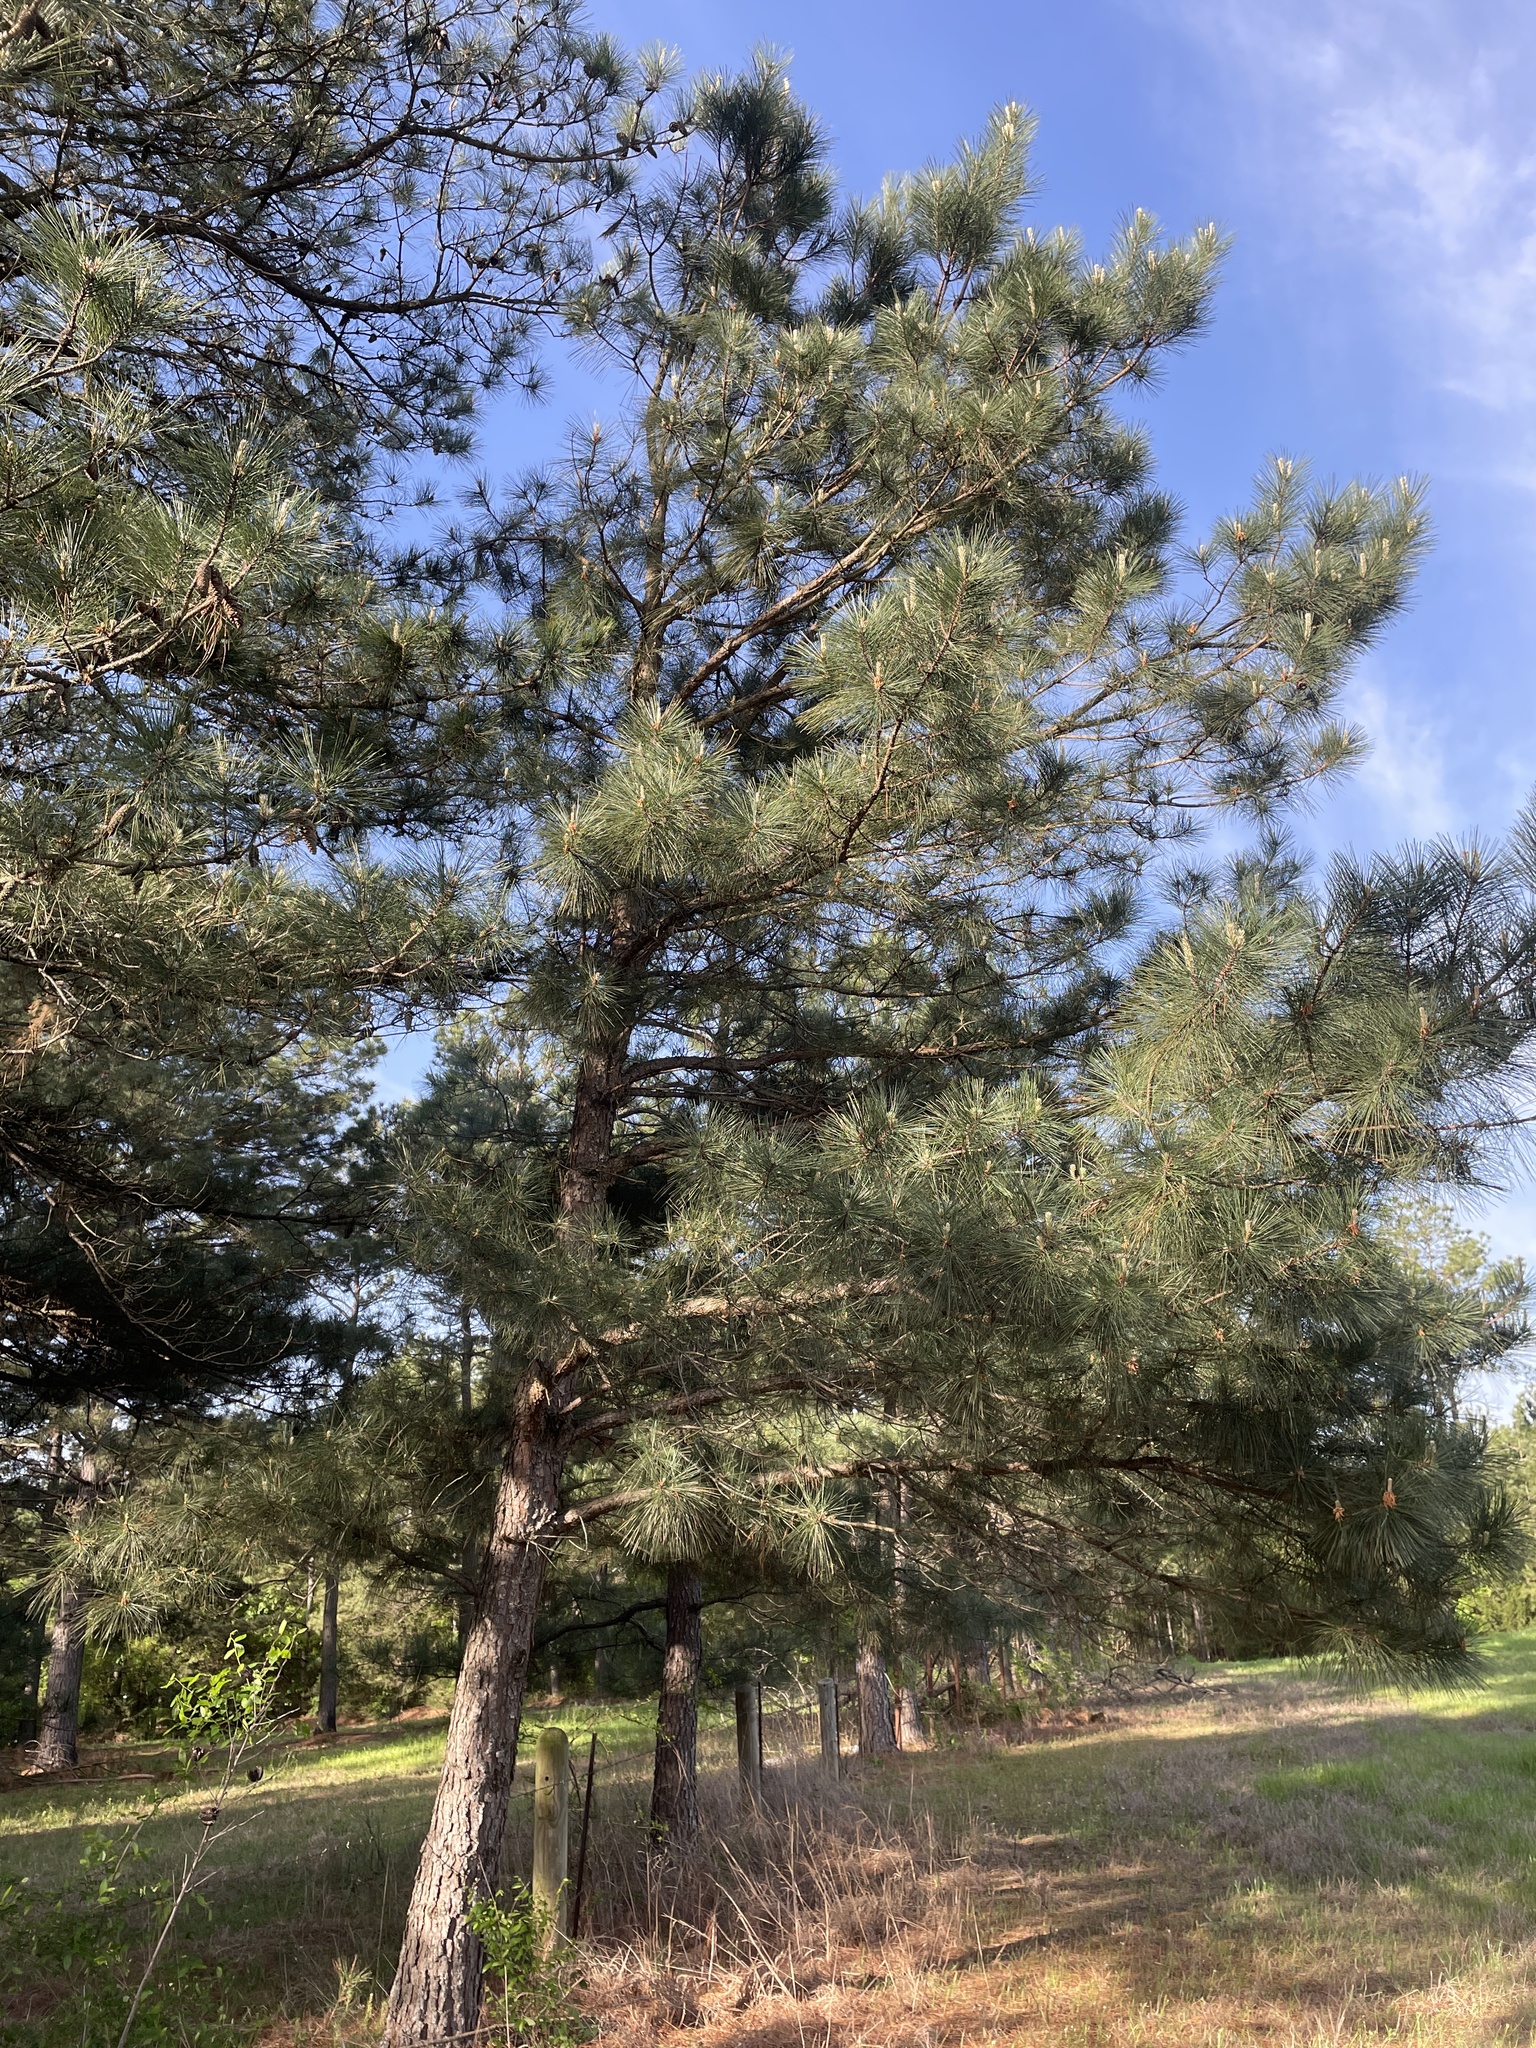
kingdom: Plantae
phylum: Tracheophyta
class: Pinopsida
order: Pinales
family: Pinaceae
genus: Pinus
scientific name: Pinus taeda
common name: Loblolly pine
